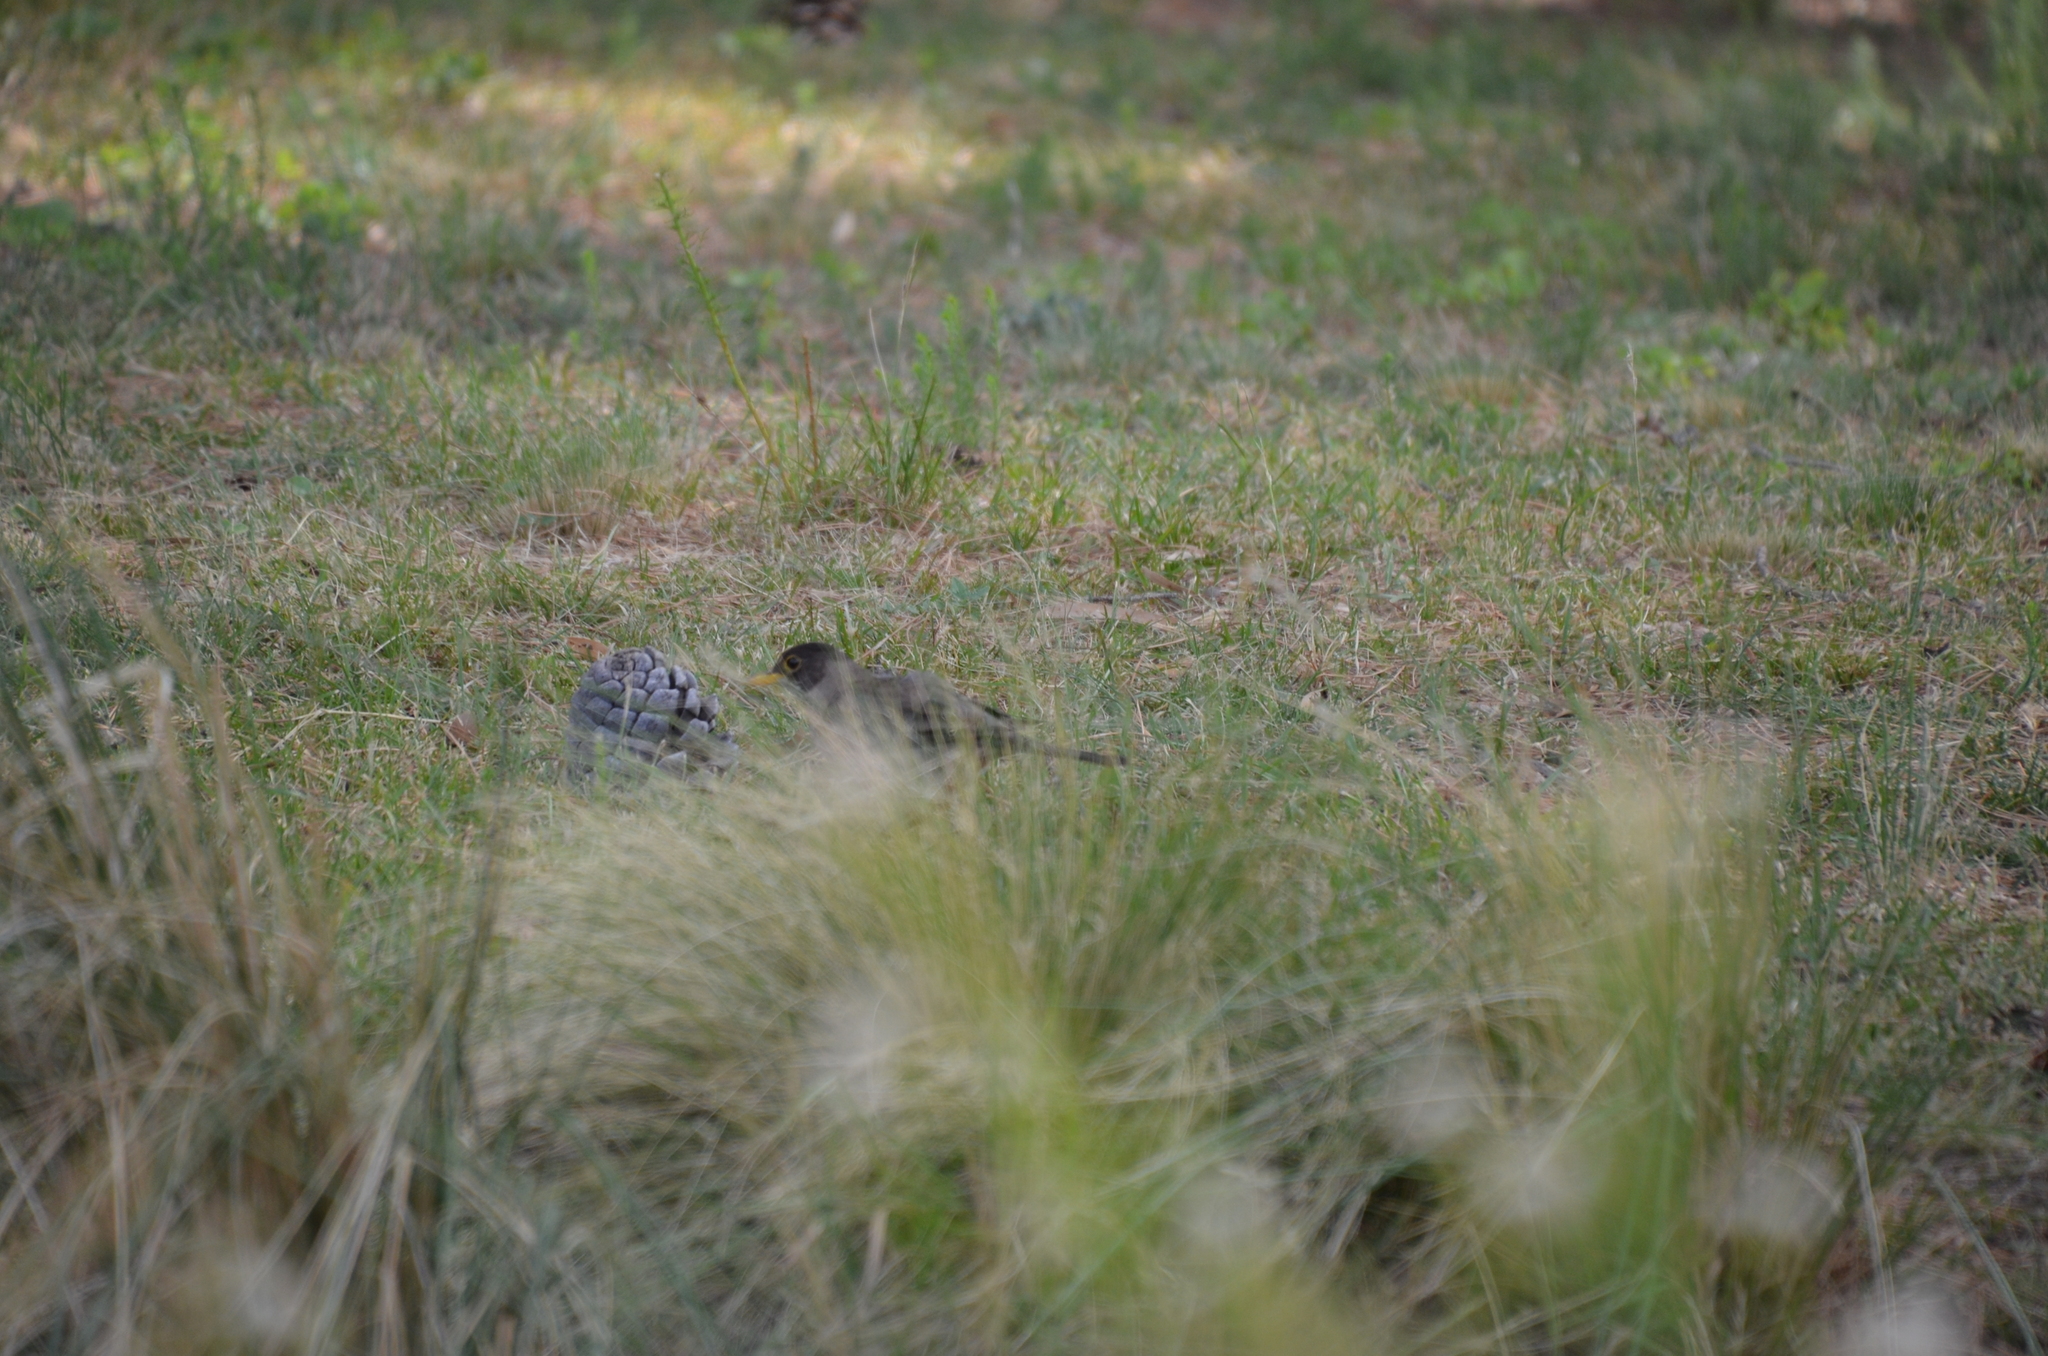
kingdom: Animalia
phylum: Chordata
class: Aves
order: Passeriformes
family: Turdidae
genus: Turdus
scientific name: Turdus falcklandii
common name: Austral thrush
